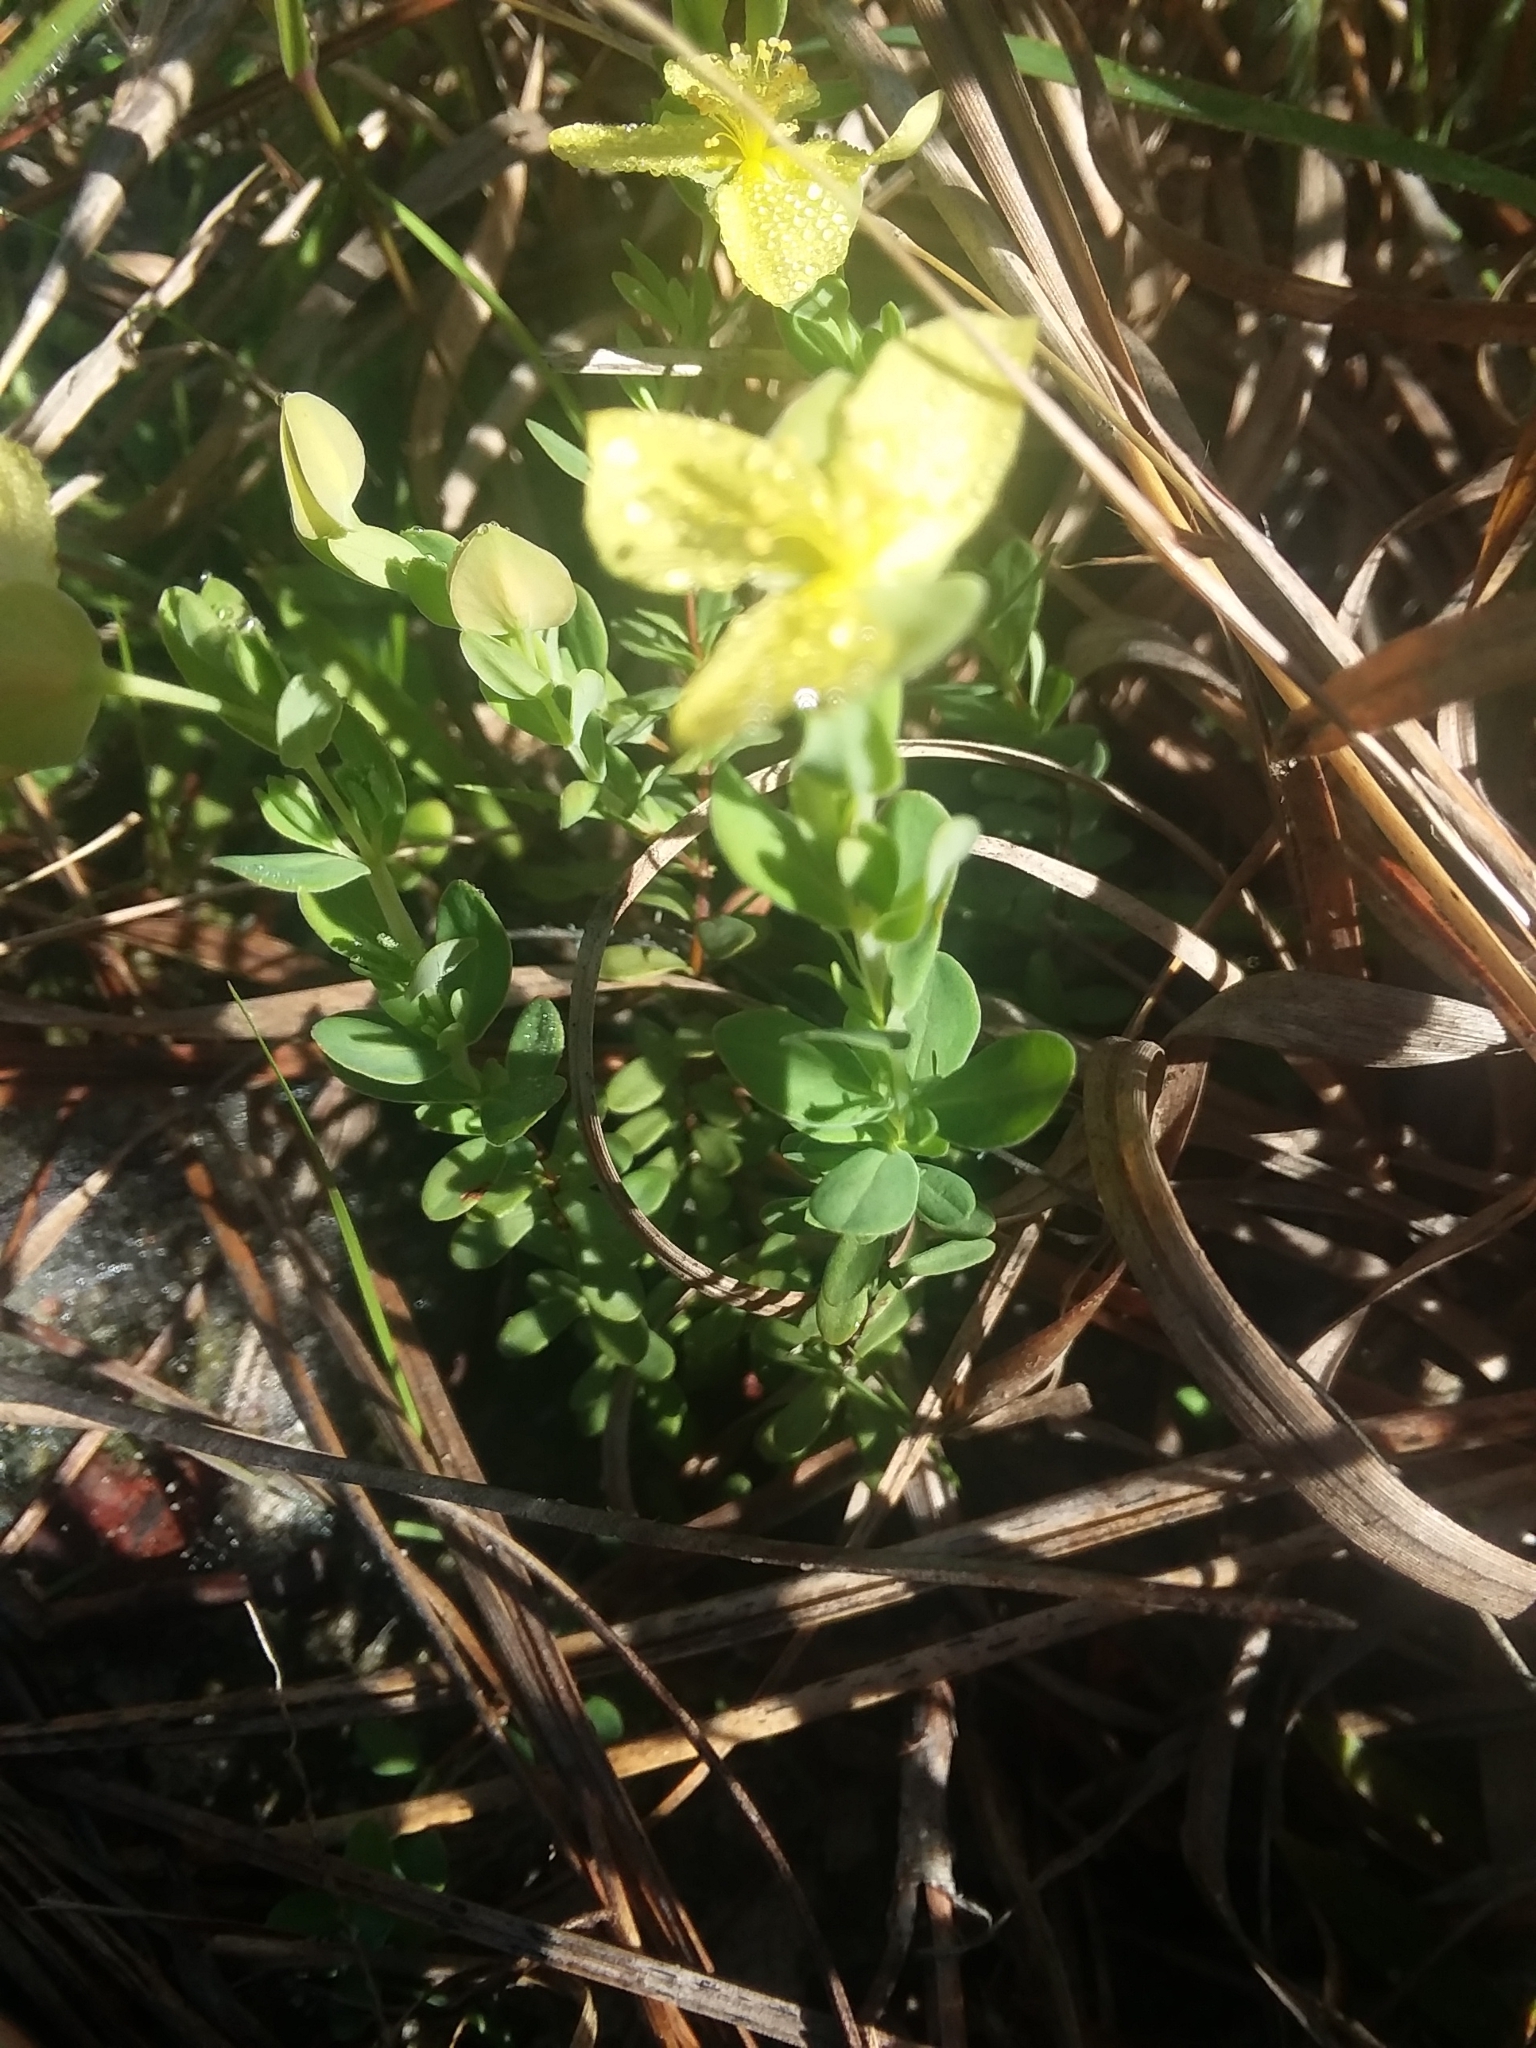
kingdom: Plantae
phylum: Tracheophyta
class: Magnoliopsida
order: Malpighiales
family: Hypericaceae
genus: Hypericum
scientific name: Hypericum suffruticosum
